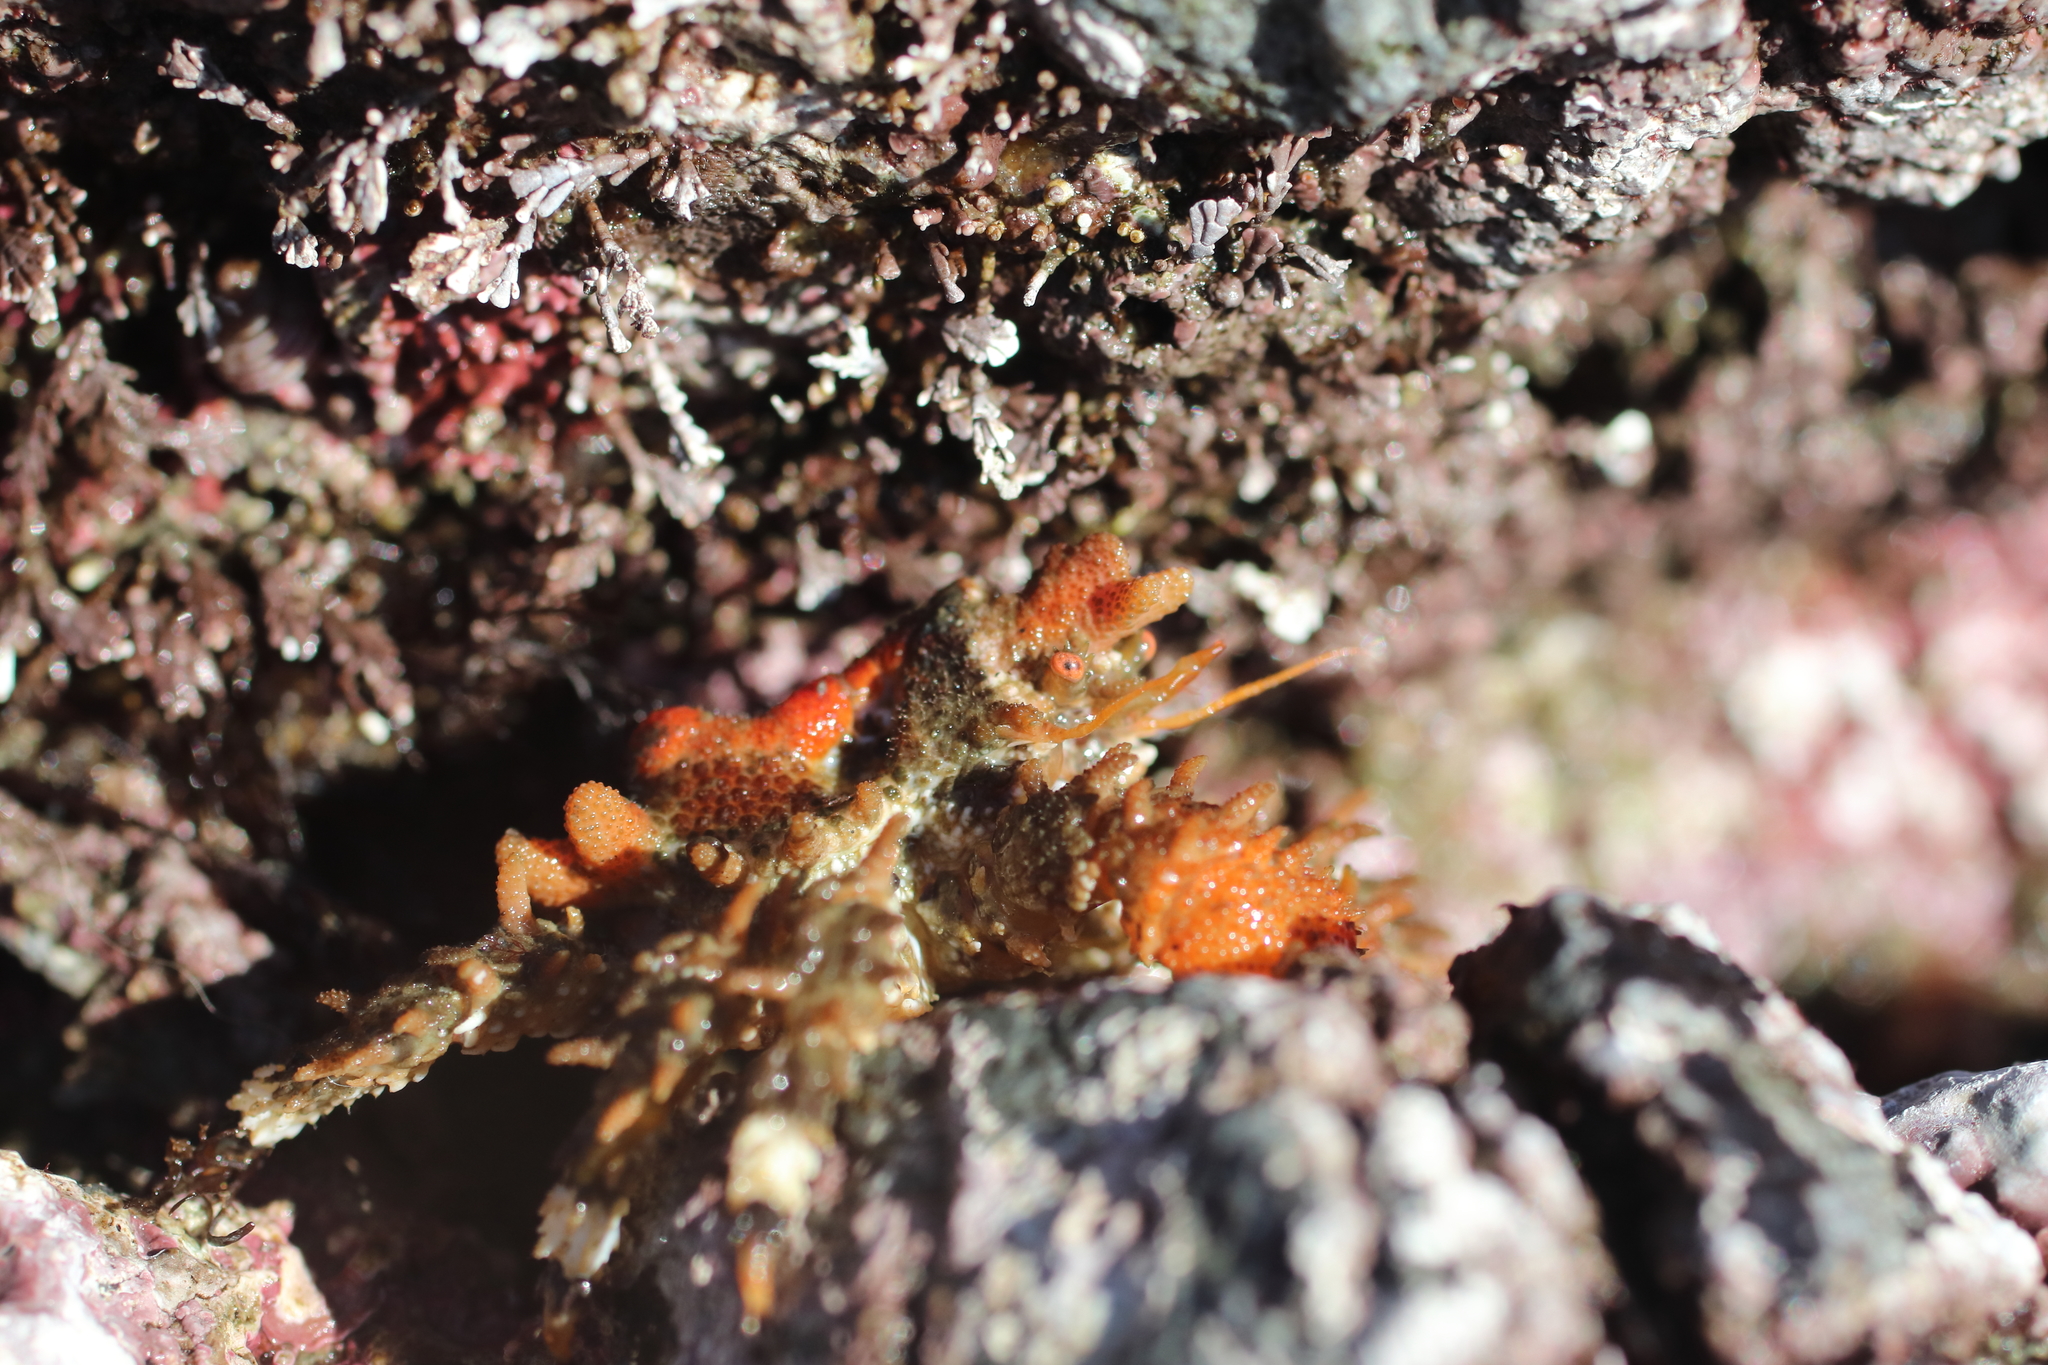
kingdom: Animalia
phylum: Arthropoda
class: Malacostraca
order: Decapoda
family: Lithodidae
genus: Phyllolithodes
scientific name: Phyllolithodes papillosus
